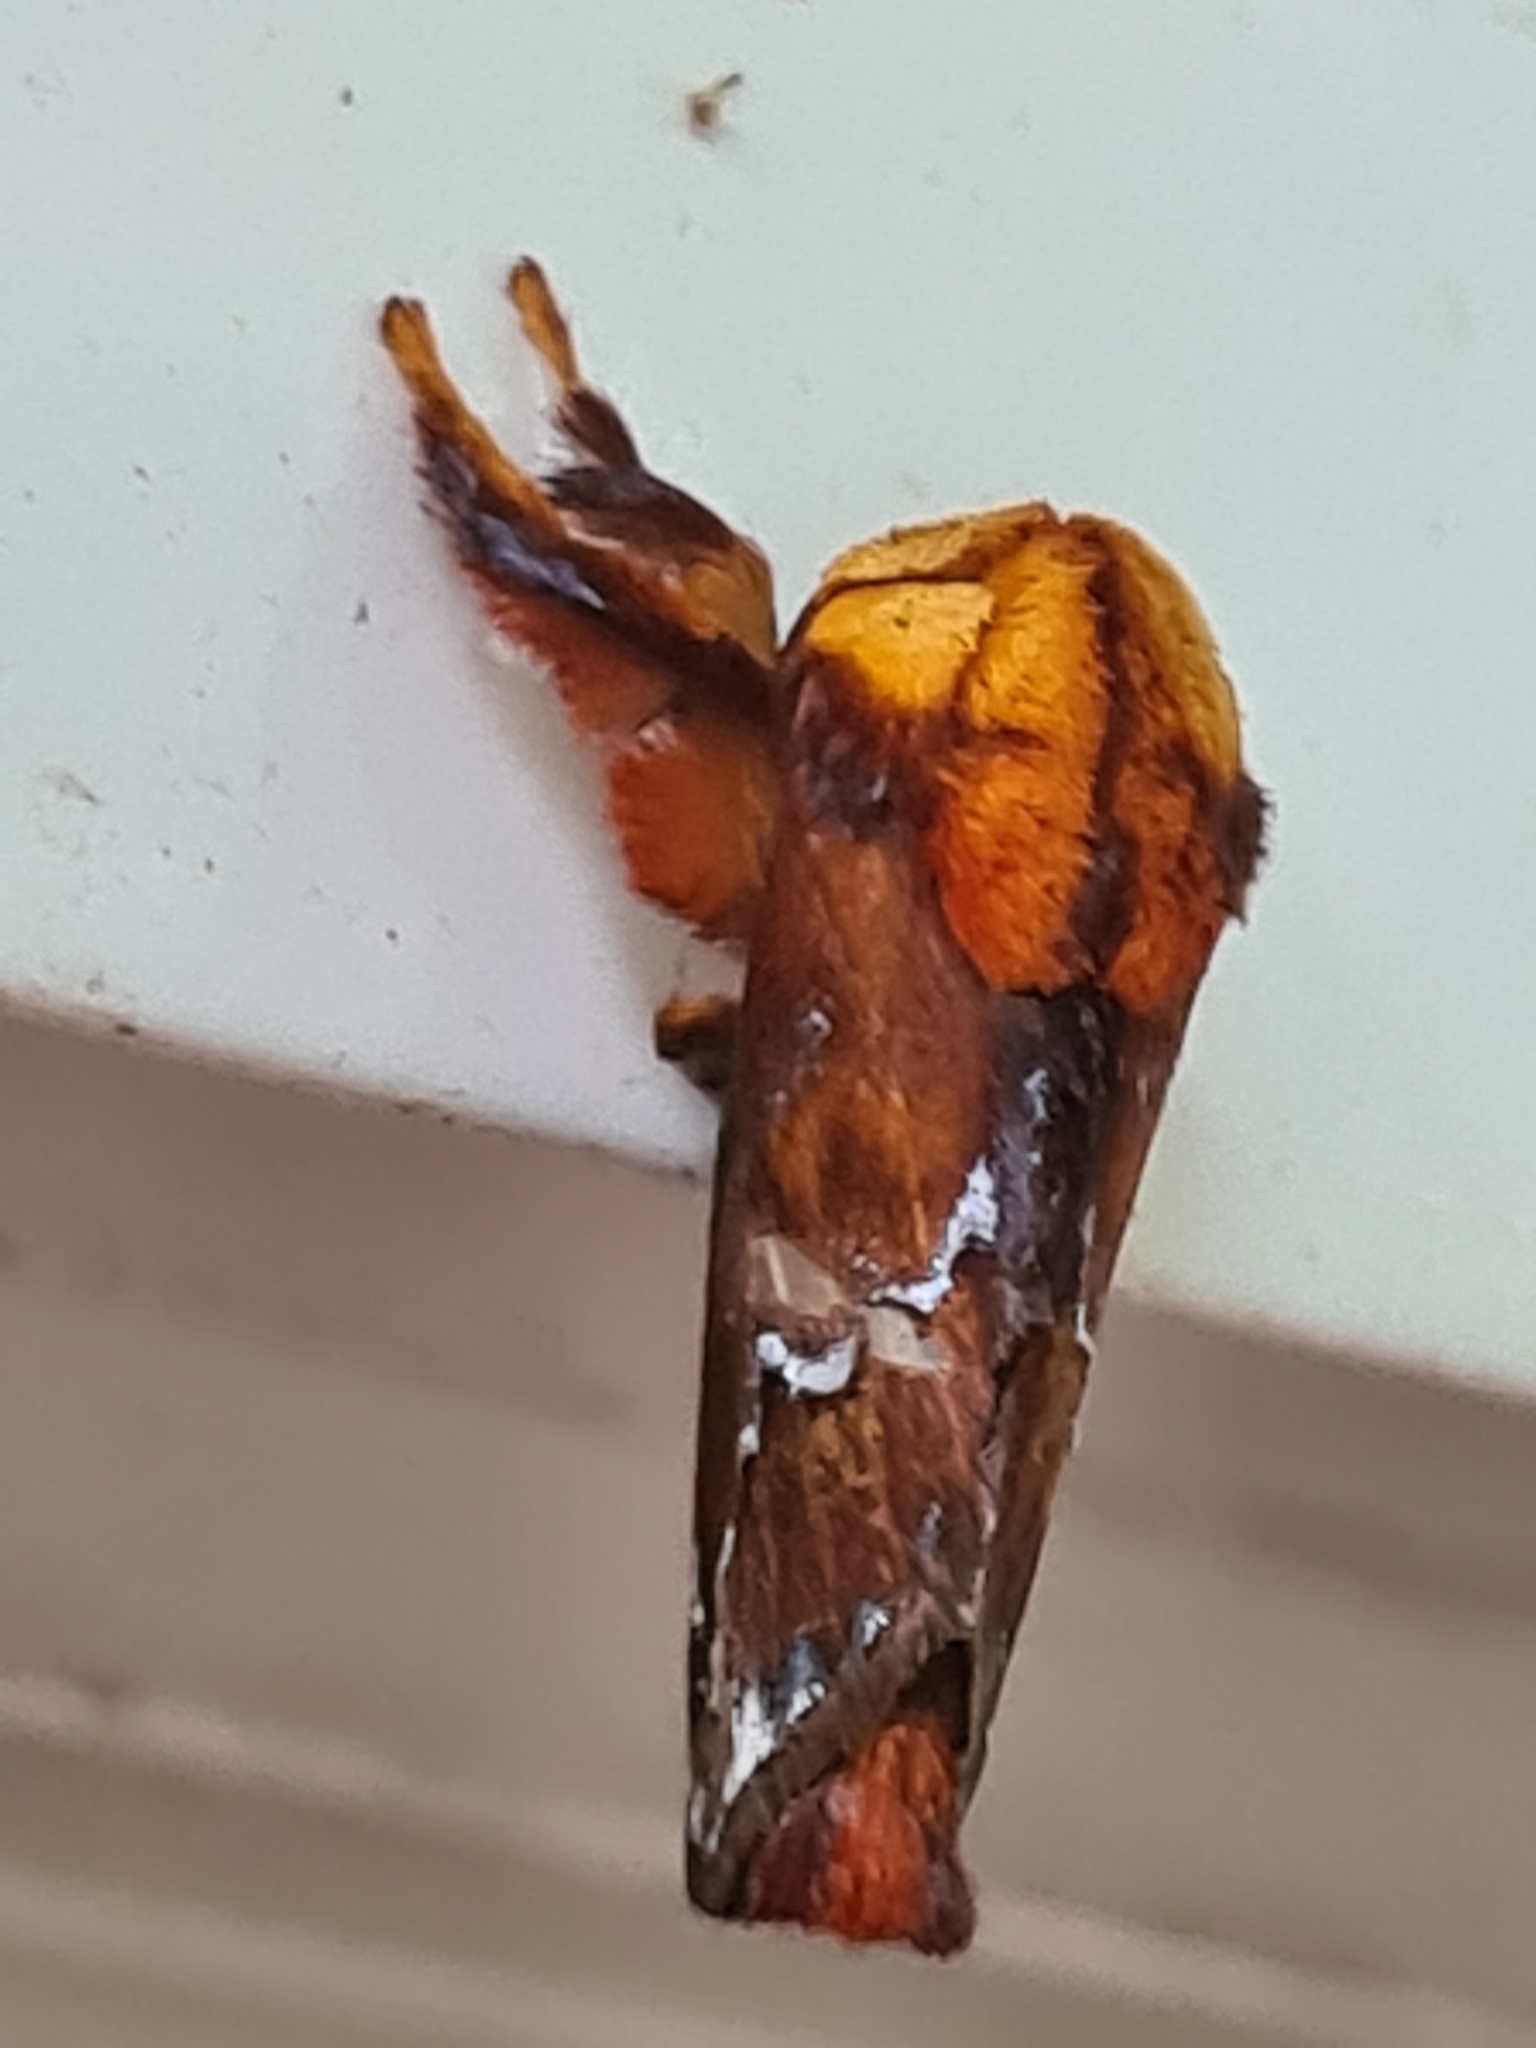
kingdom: Animalia
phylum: Arthropoda
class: Insecta
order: Lepidoptera
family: Limacodidae
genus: Miresa
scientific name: Miresa clarissa
